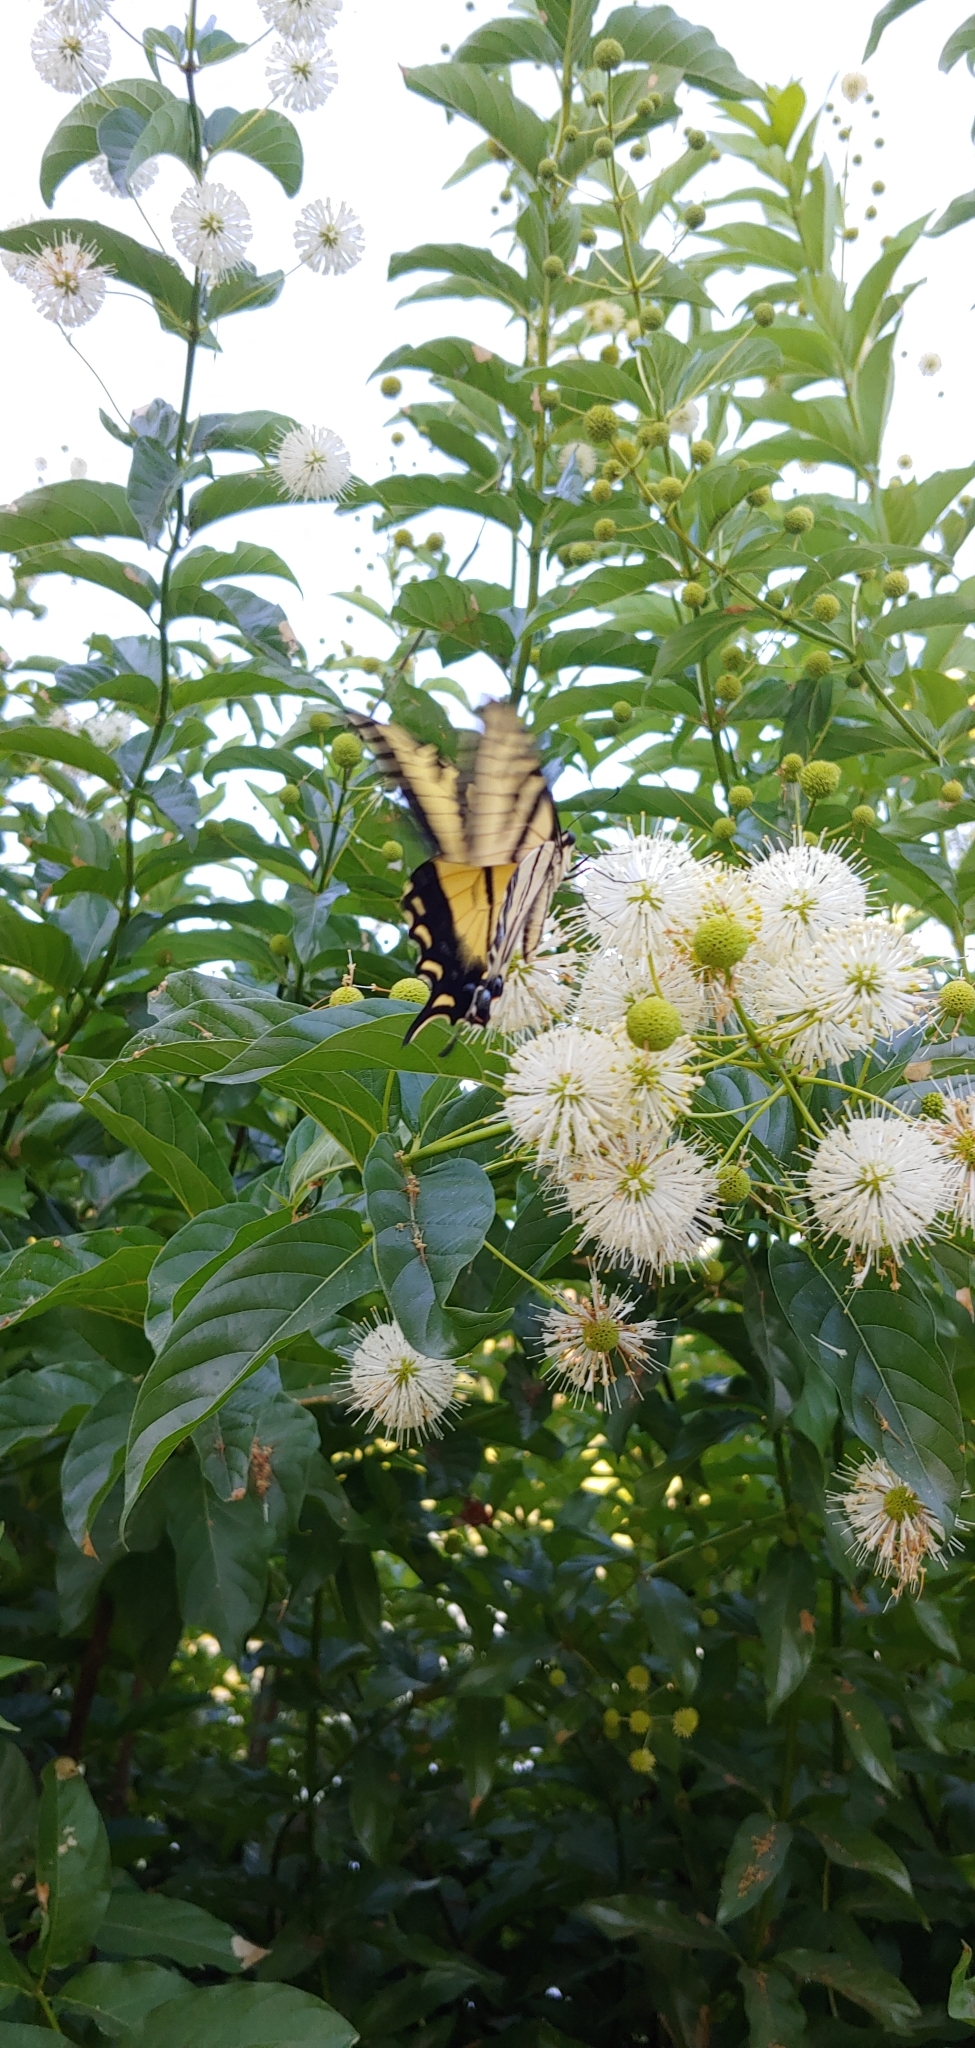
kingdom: Animalia
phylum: Arthropoda
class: Insecta
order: Lepidoptera
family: Papilionidae
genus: Papilio
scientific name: Papilio rutulus
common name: Western tiger swallowtail
